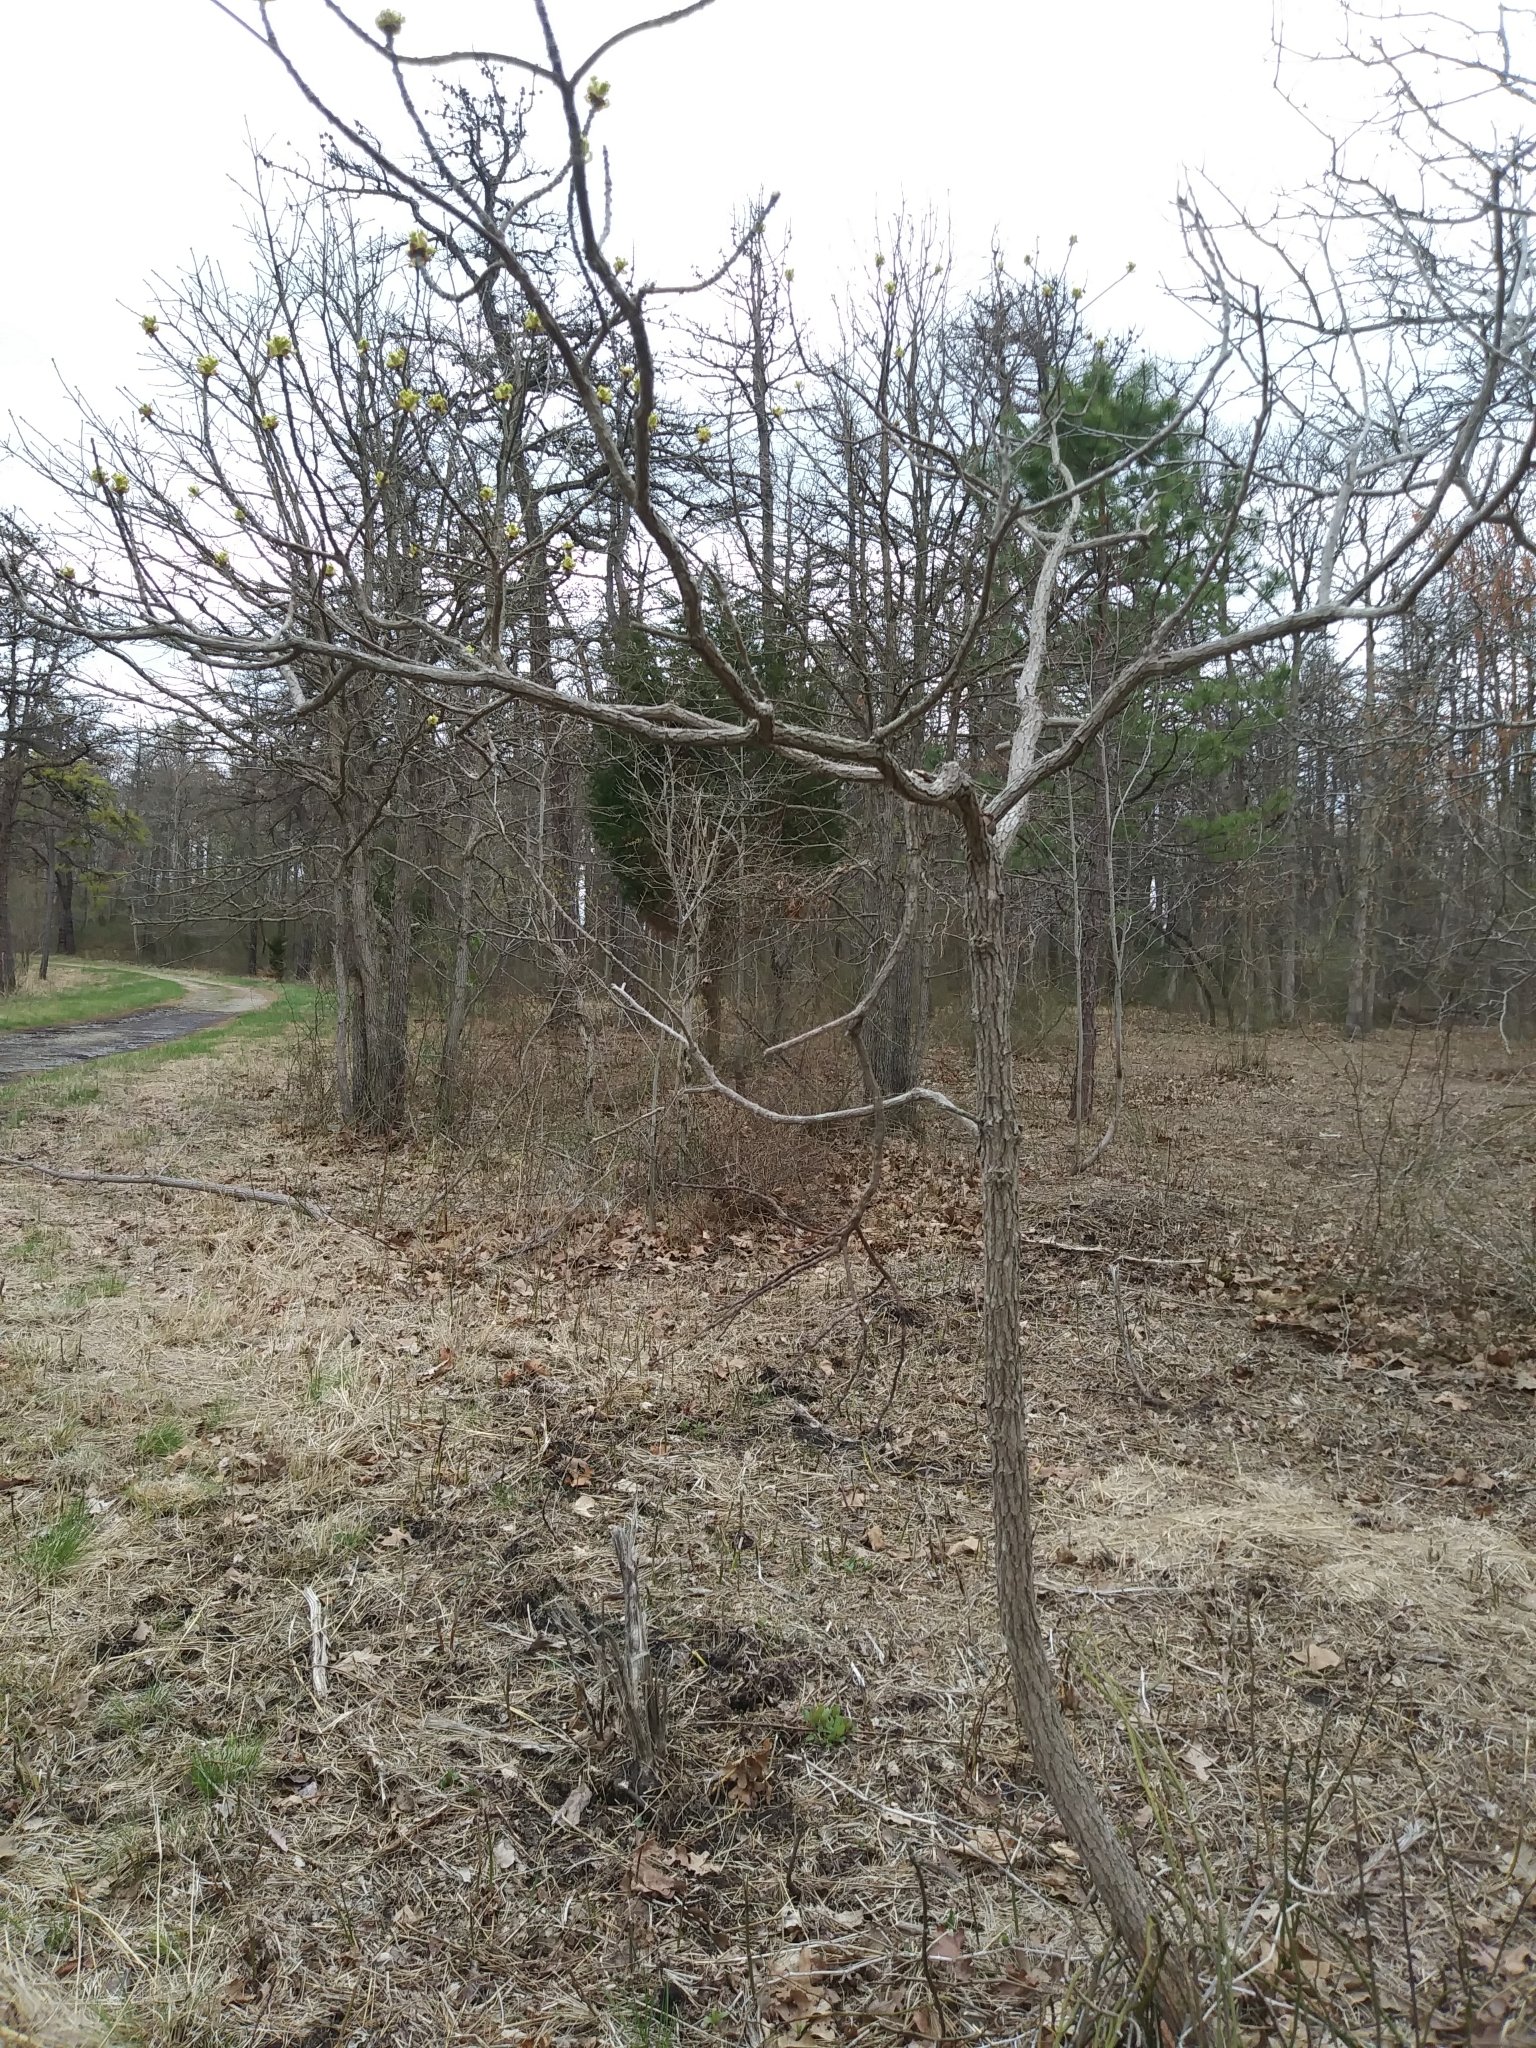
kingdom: Plantae
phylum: Tracheophyta
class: Magnoliopsida
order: Laurales
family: Lauraceae
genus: Sassafras
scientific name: Sassafras albidum
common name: Sassafras
